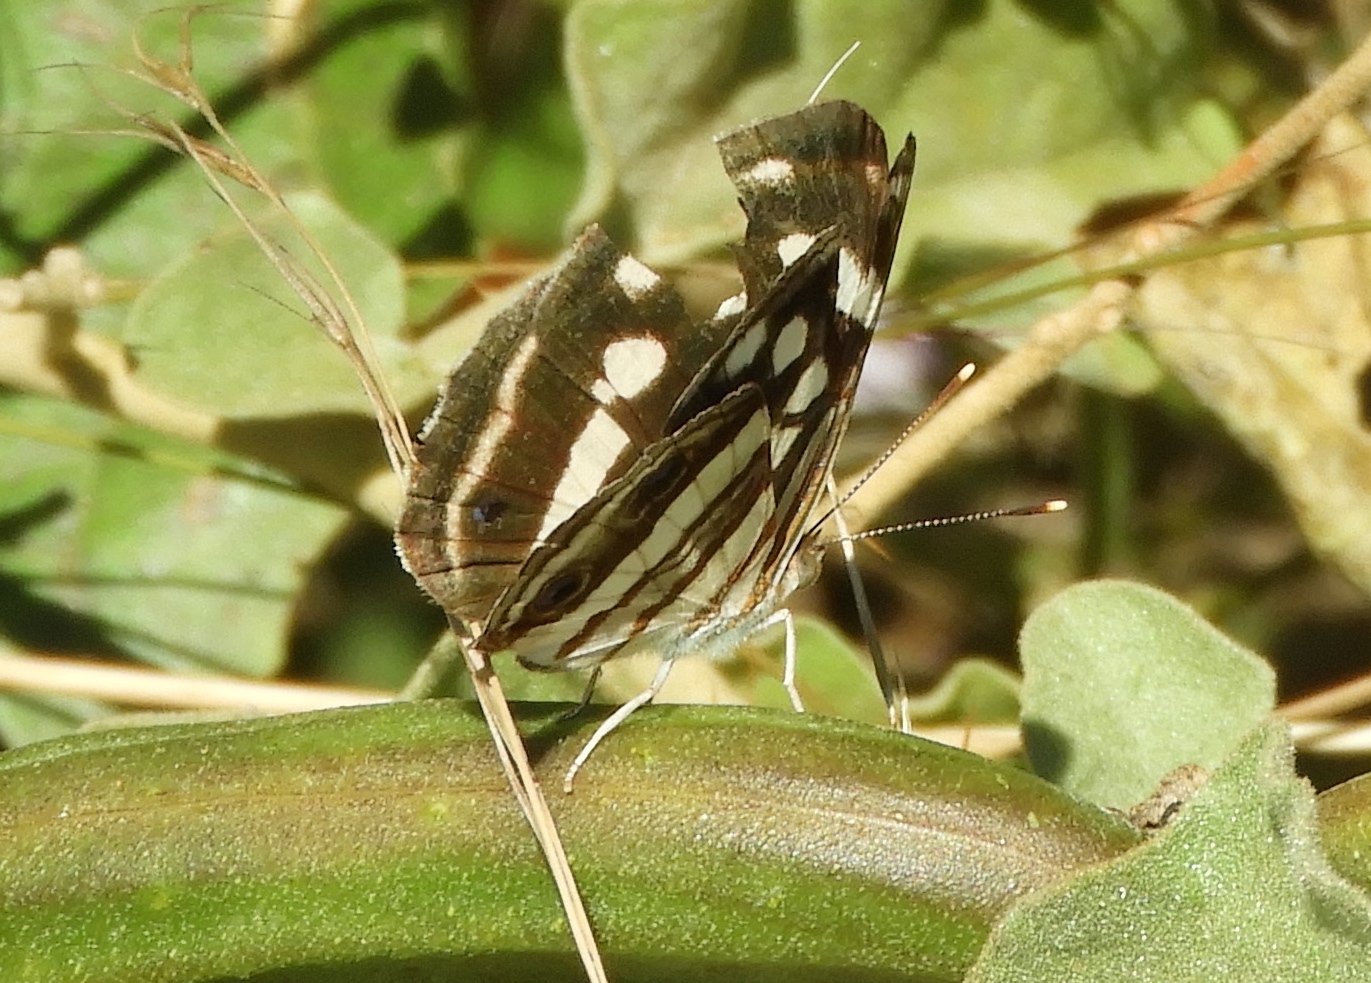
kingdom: Animalia
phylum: Arthropoda
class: Insecta
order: Lepidoptera
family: Nymphalidae
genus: Dynamine
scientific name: Dynamine mylitta
